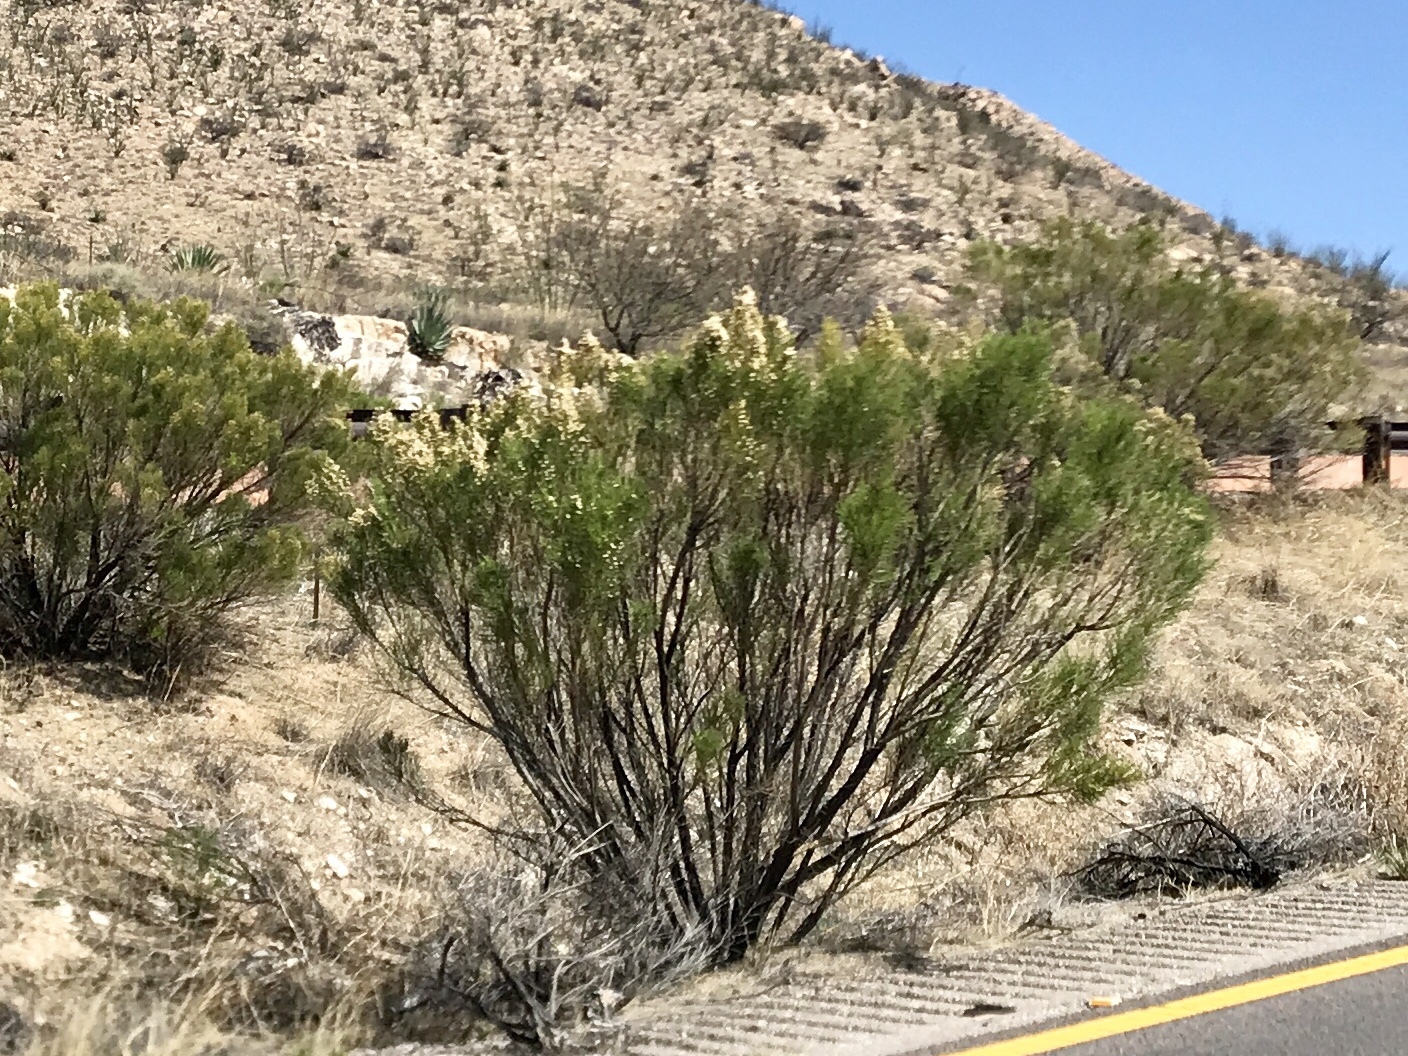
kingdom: Plantae
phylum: Tracheophyta
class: Magnoliopsida
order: Asterales
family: Asteraceae
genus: Baccharis
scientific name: Baccharis sarothroides
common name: Desert-broom
